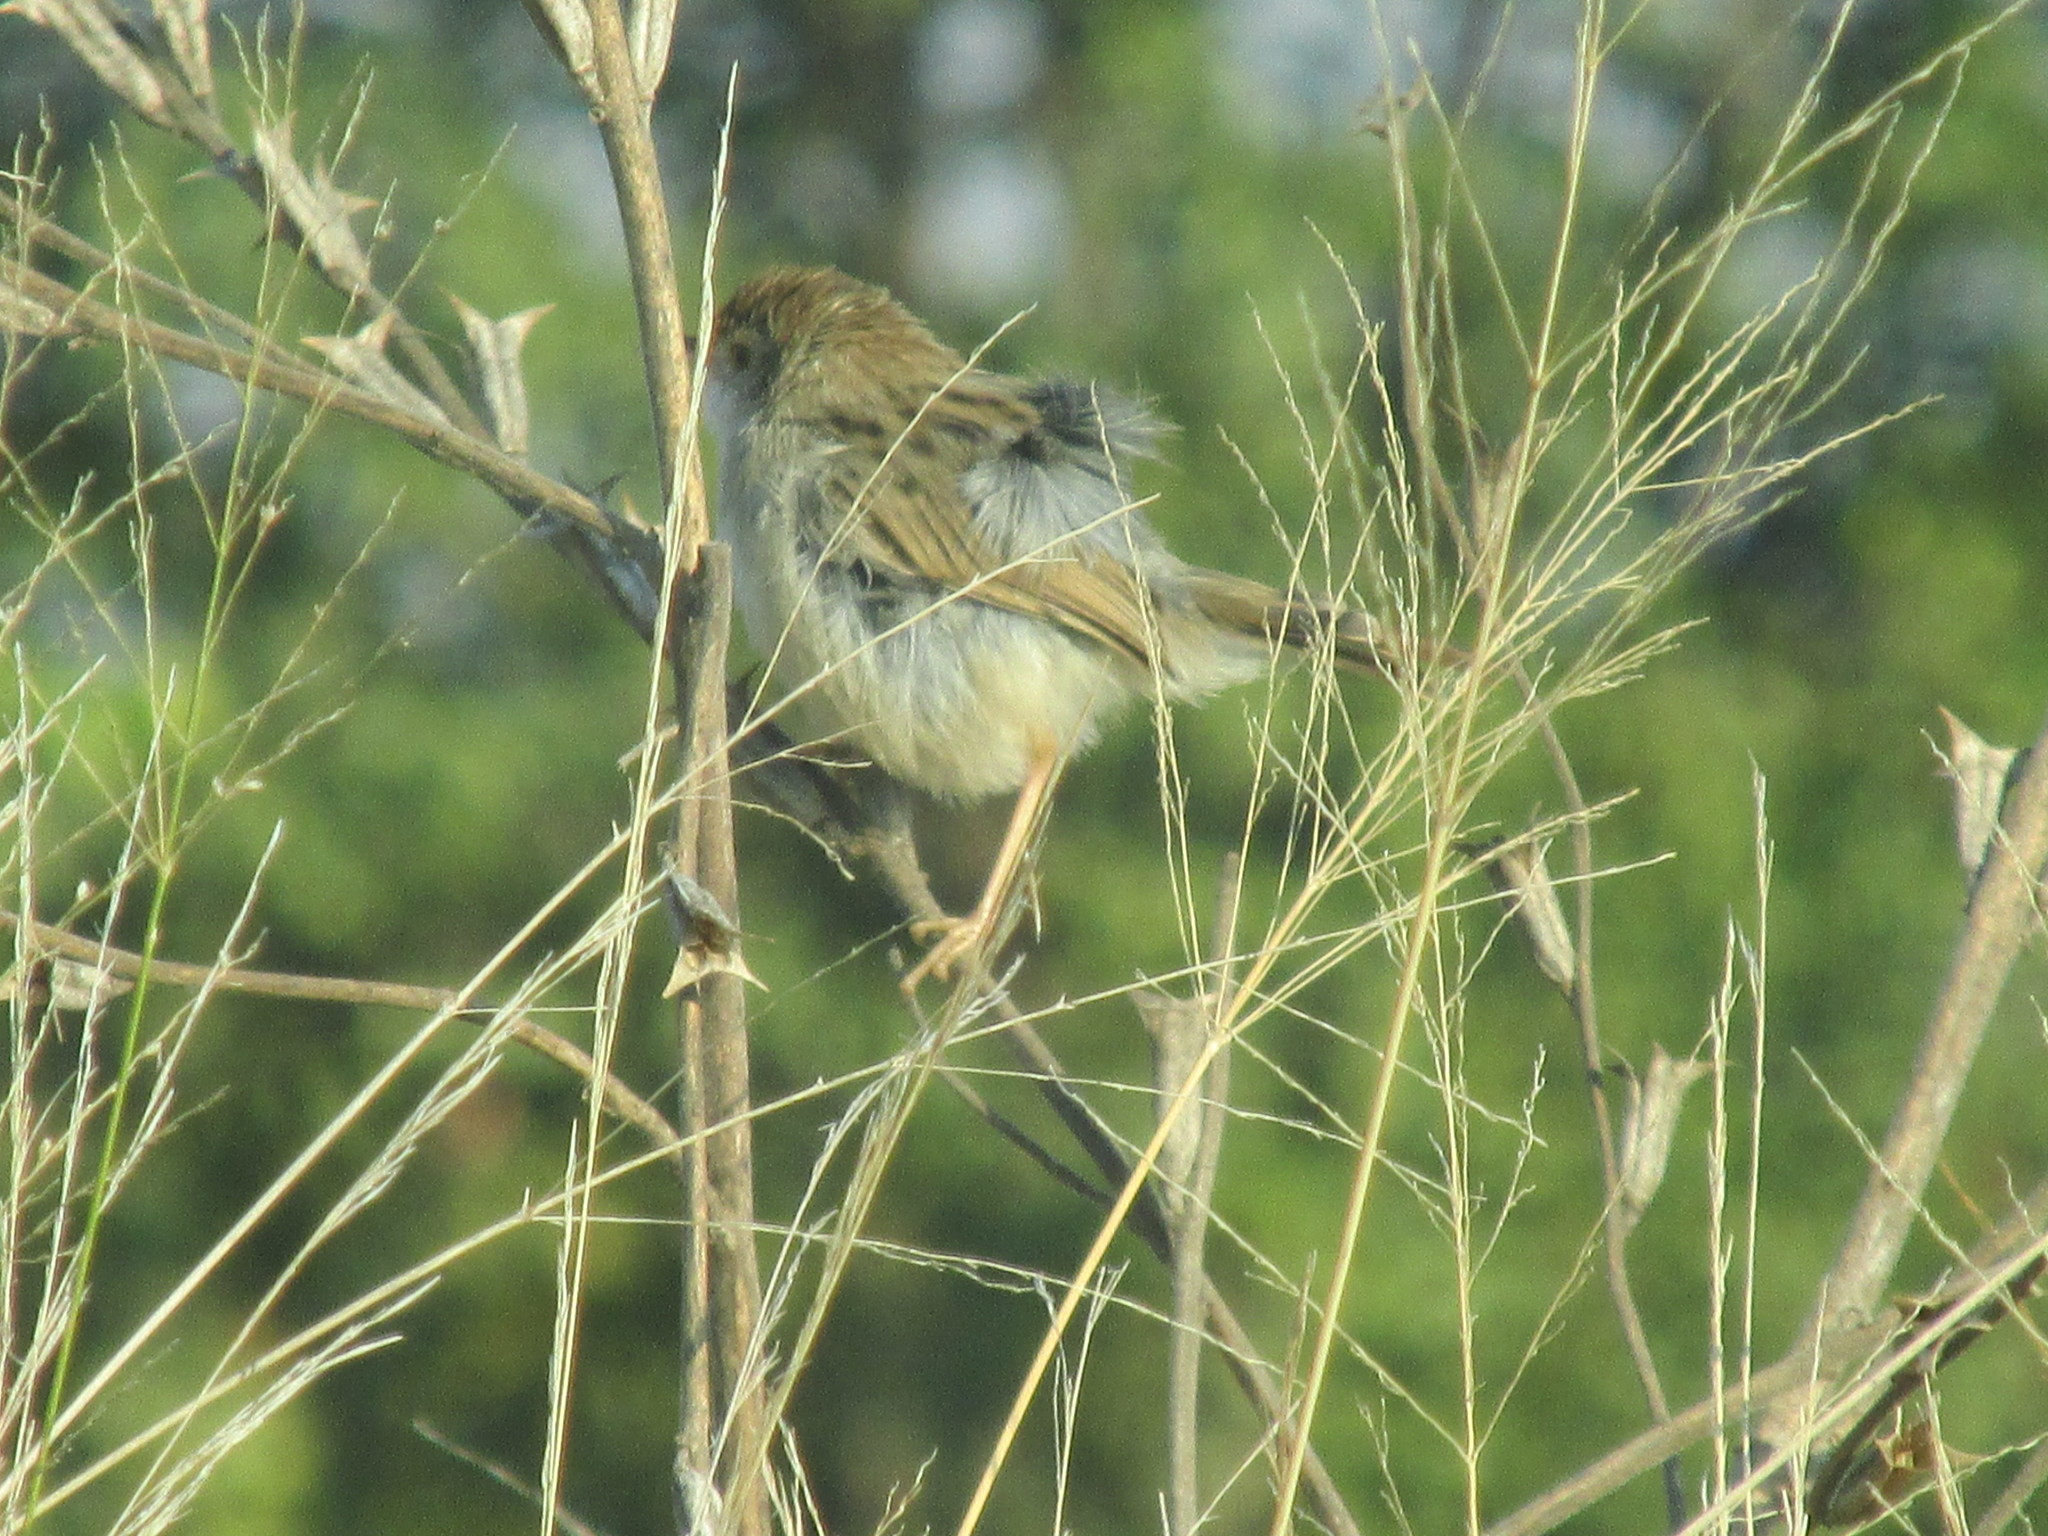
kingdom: Animalia
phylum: Chordata
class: Aves
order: Passeriformes
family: Cisticolidae
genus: Cisticola
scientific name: Cisticola chiniana
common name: Rattling cisticola
